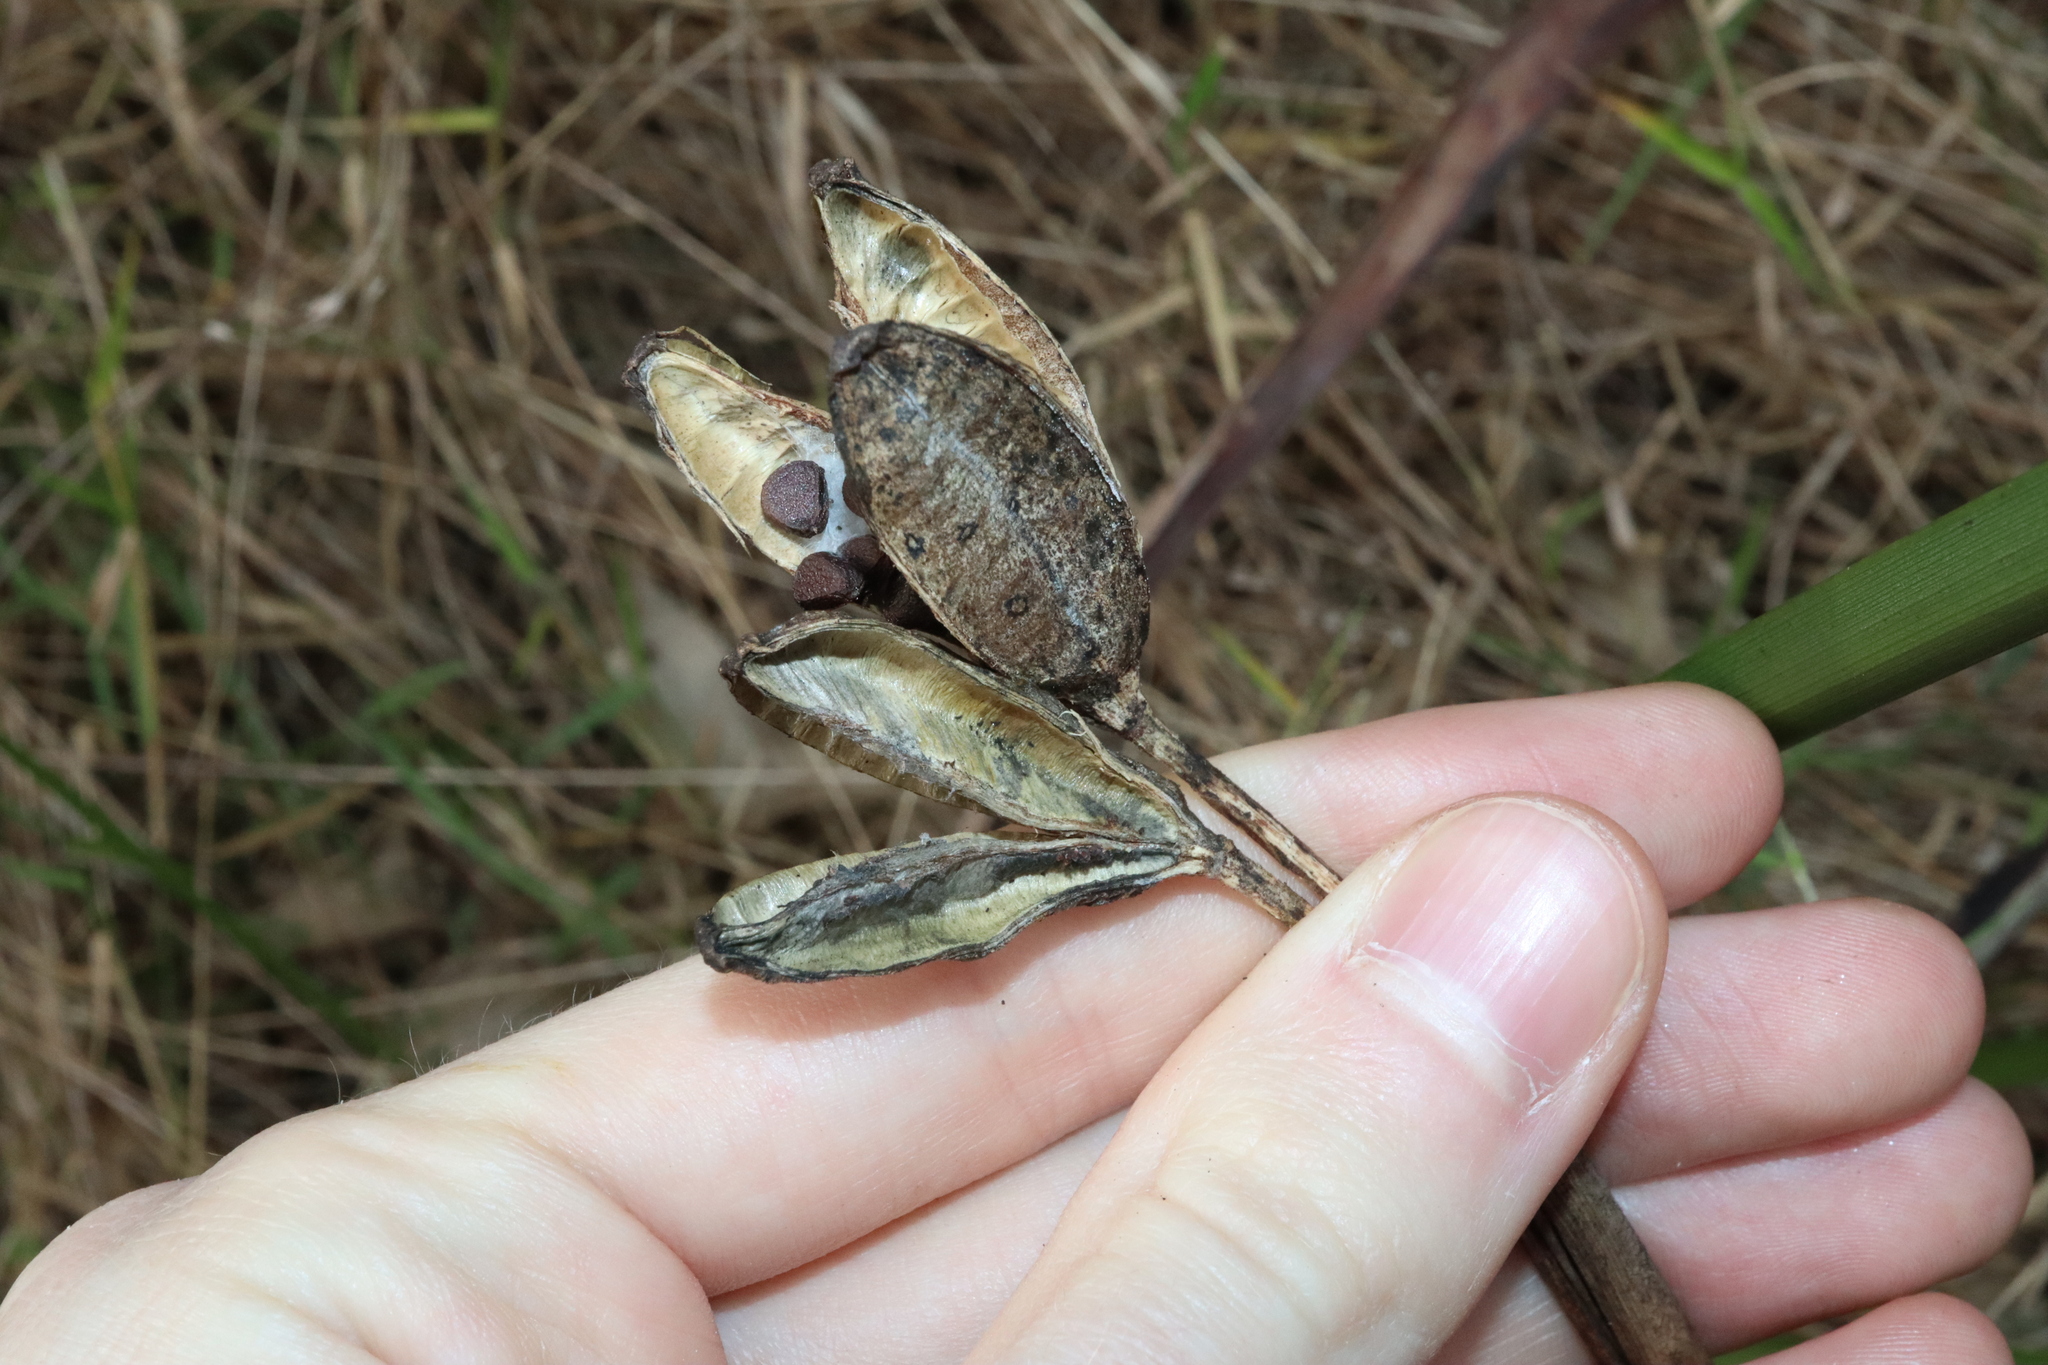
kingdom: Plantae
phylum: Tracheophyta
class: Liliopsida
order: Asparagales
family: Iridaceae
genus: Dietes
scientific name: Dietes grandiflora
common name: Wild iris
